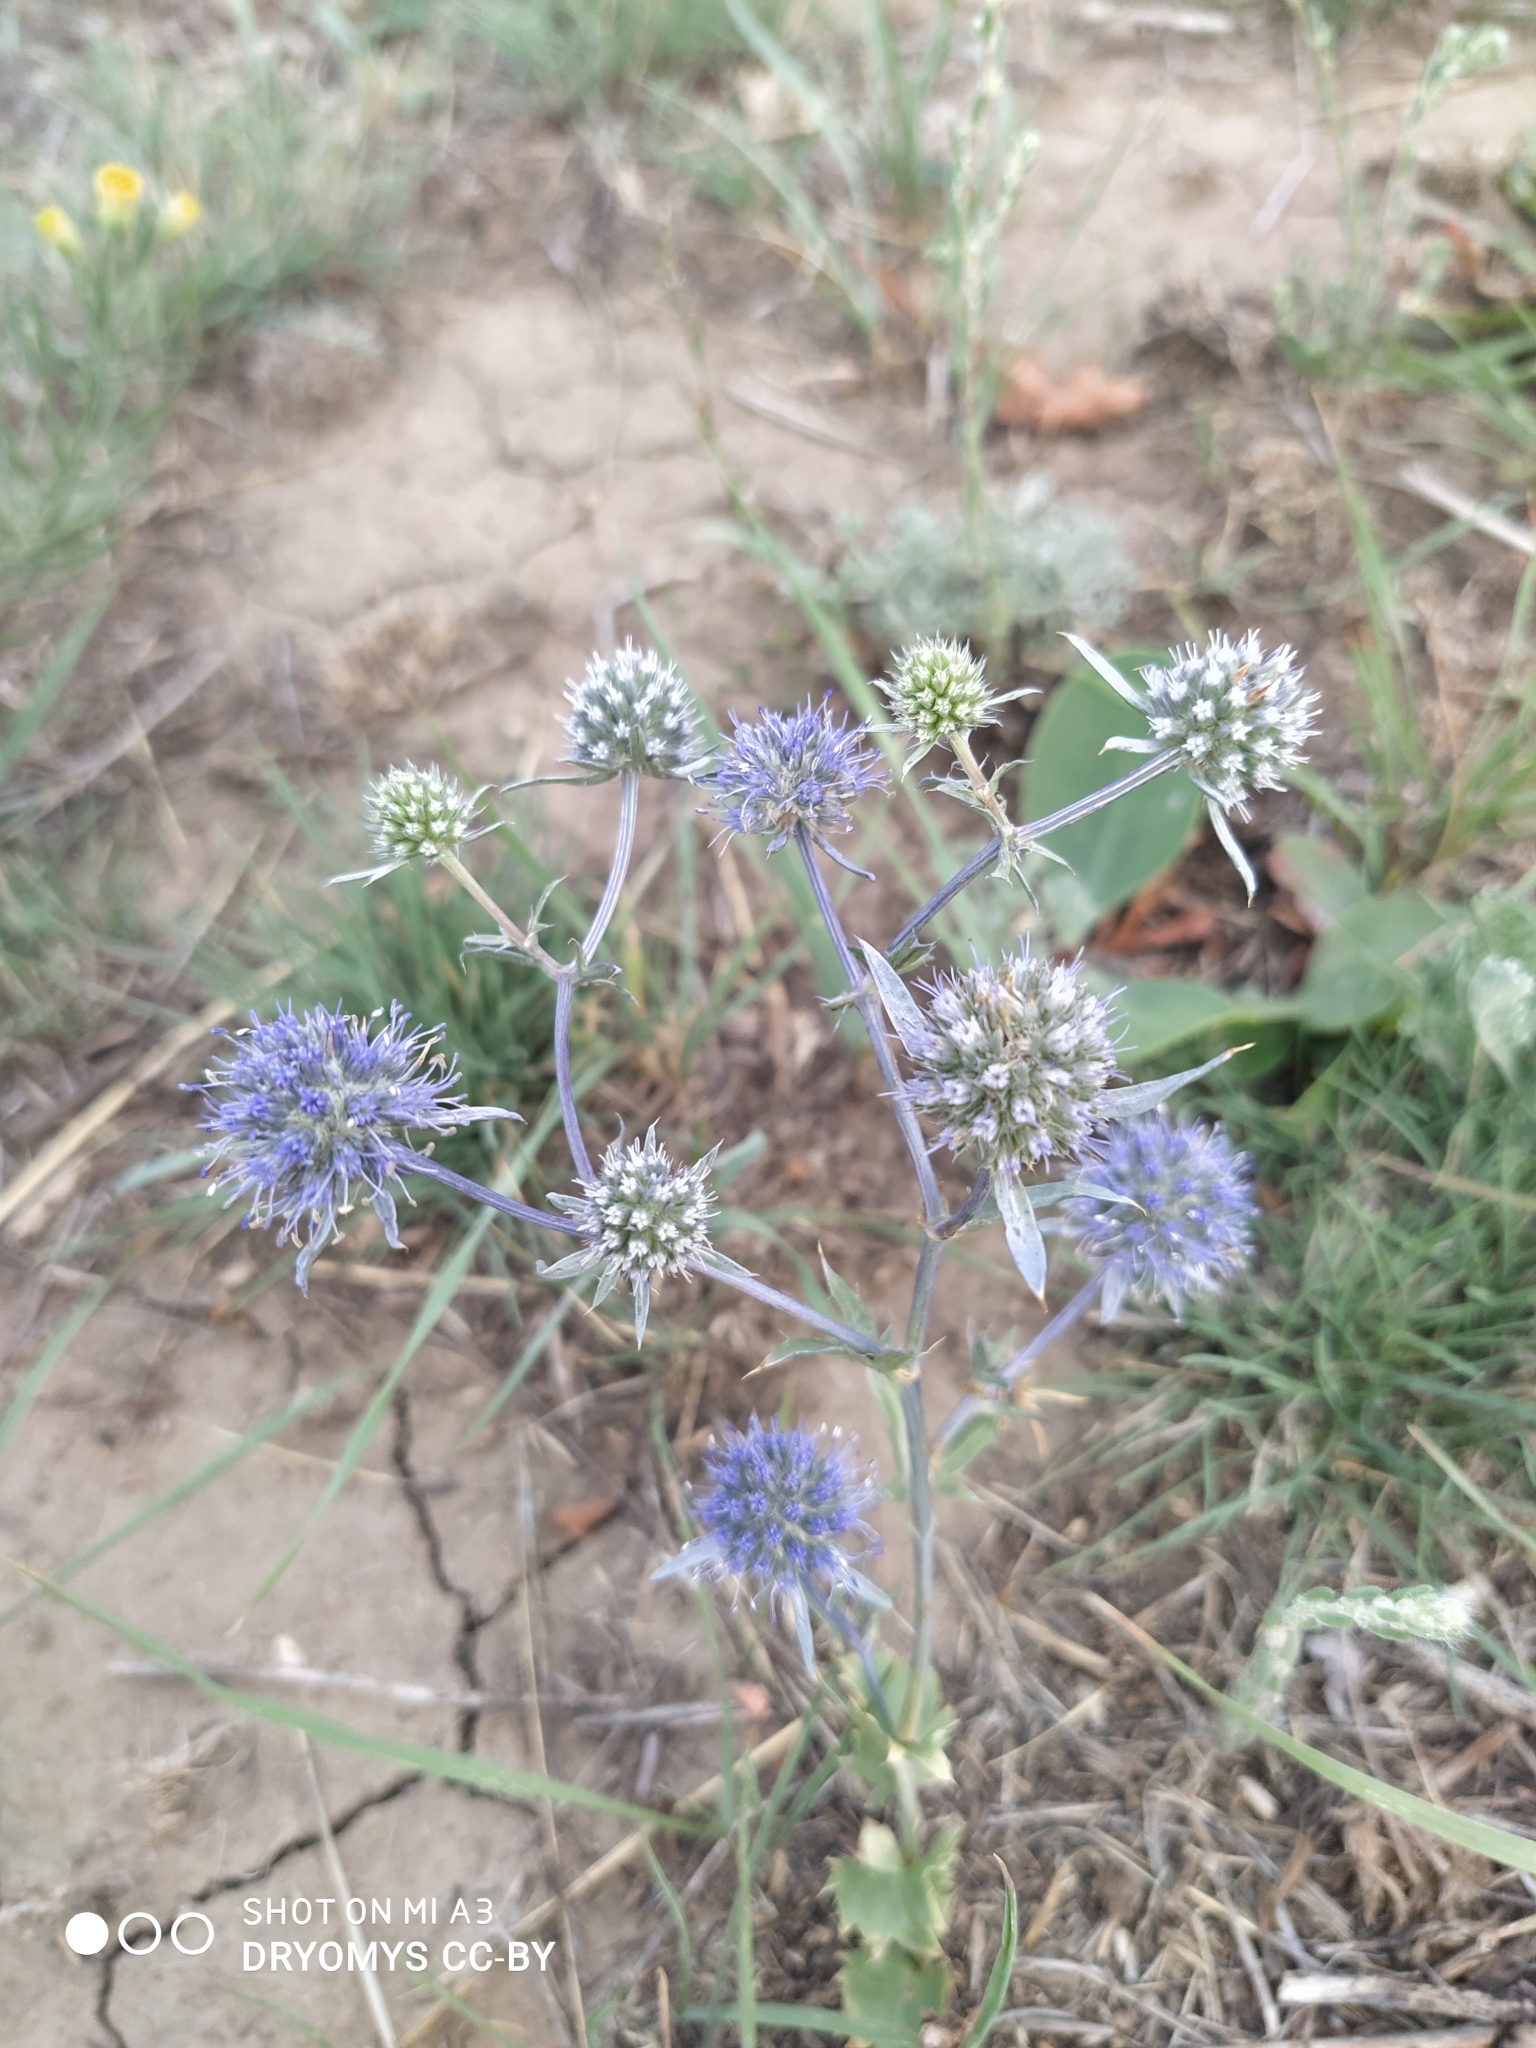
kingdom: Plantae
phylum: Tracheophyta
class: Magnoliopsida
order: Apiales
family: Apiaceae
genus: Eryngium
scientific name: Eryngium planum
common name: Blue eryngo
